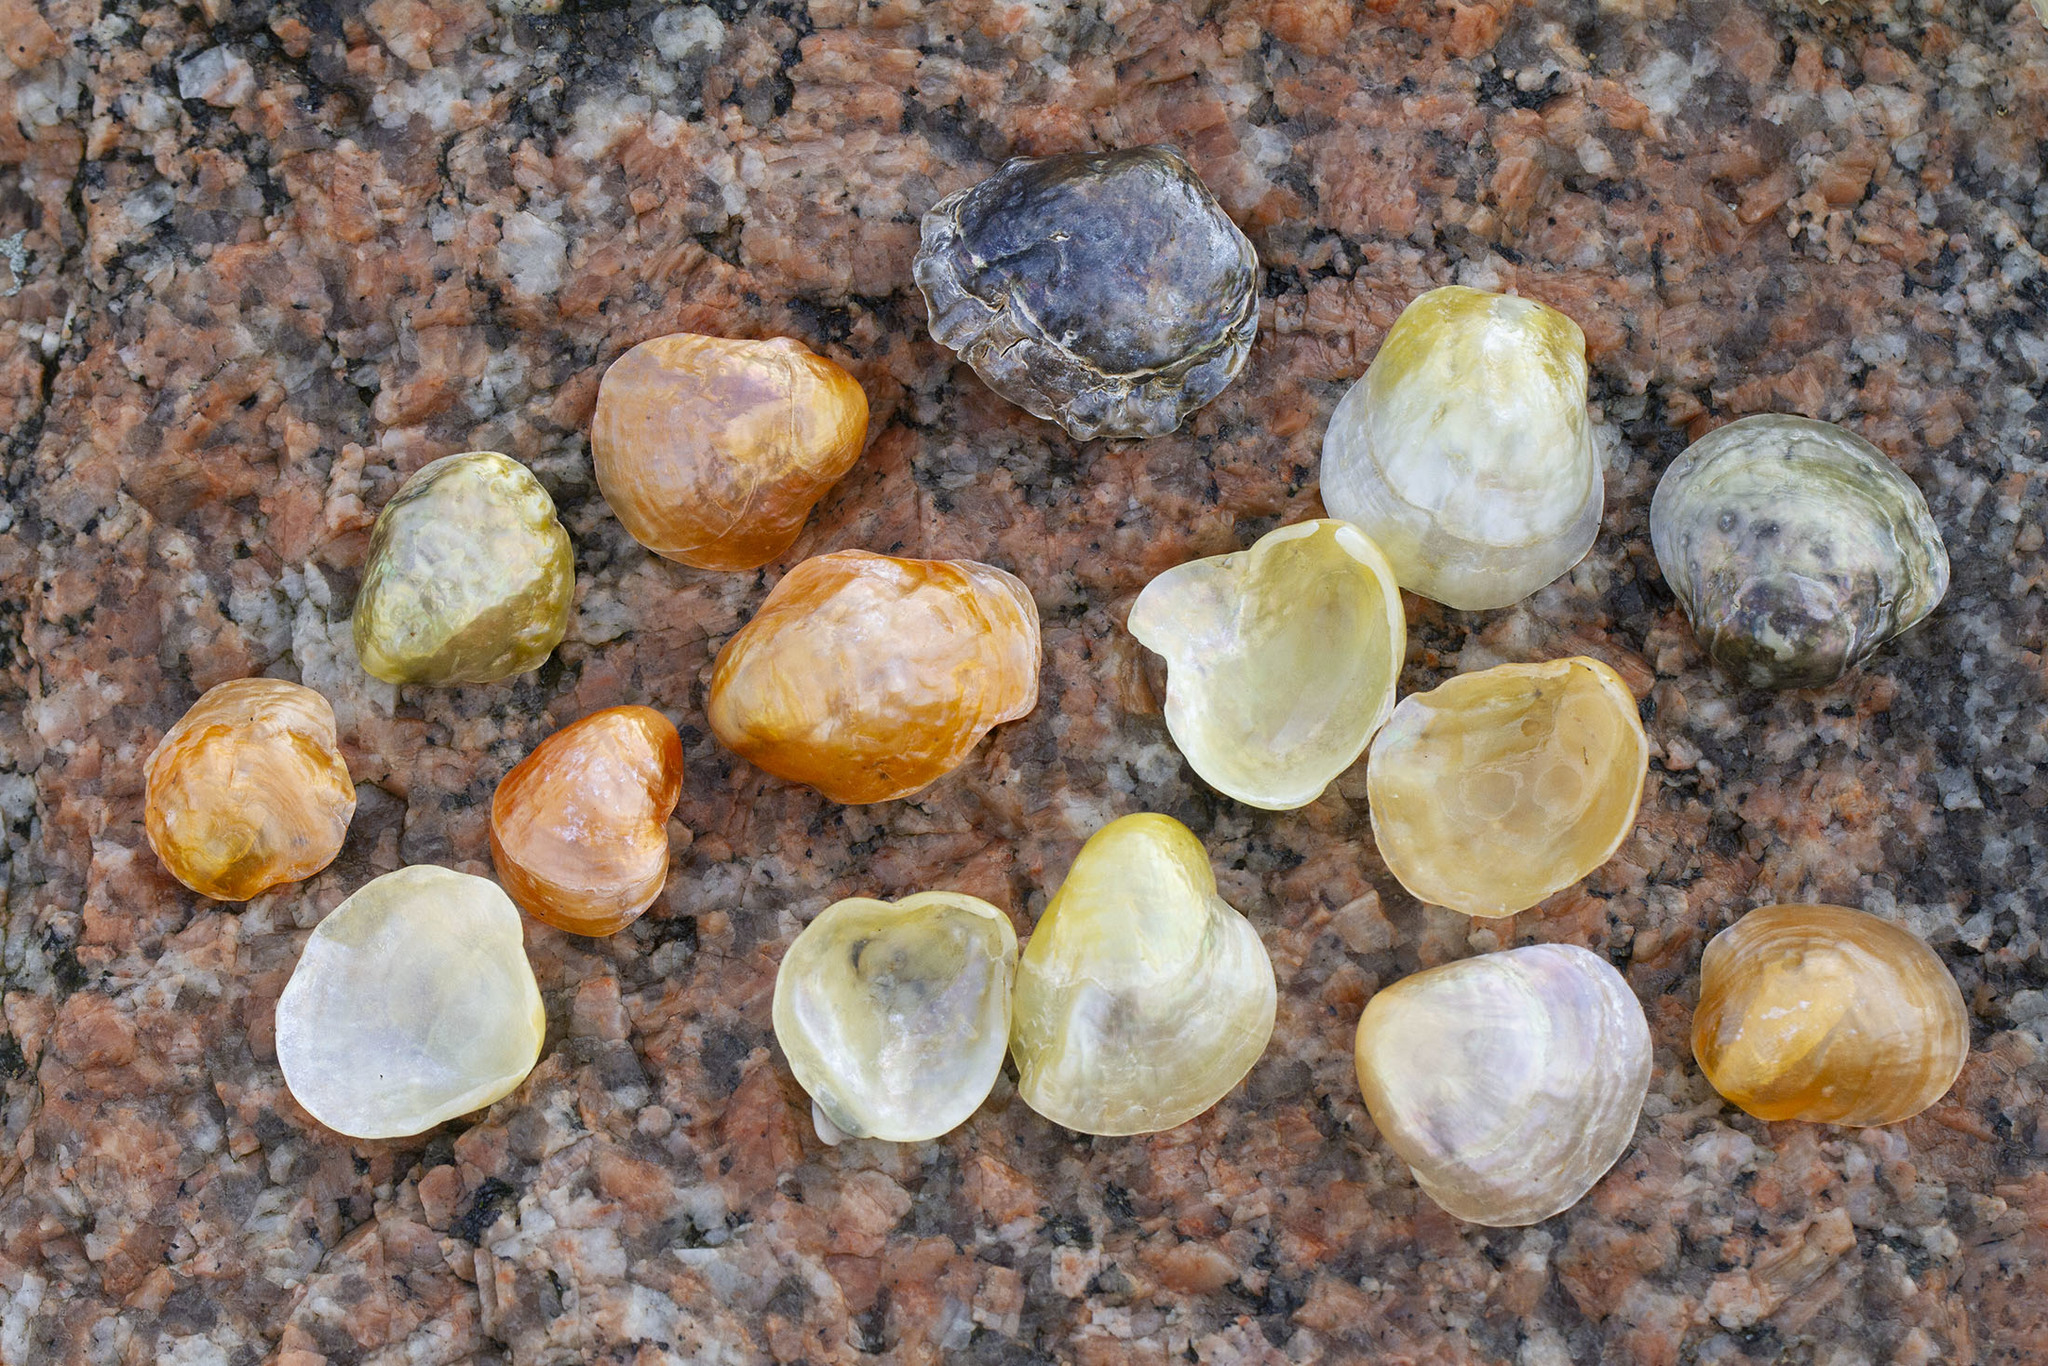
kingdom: Animalia
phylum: Mollusca
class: Bivalvia
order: Pectinida
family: Anomiidae
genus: Anomia
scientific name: Anomia simplex
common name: Common jingle shell
